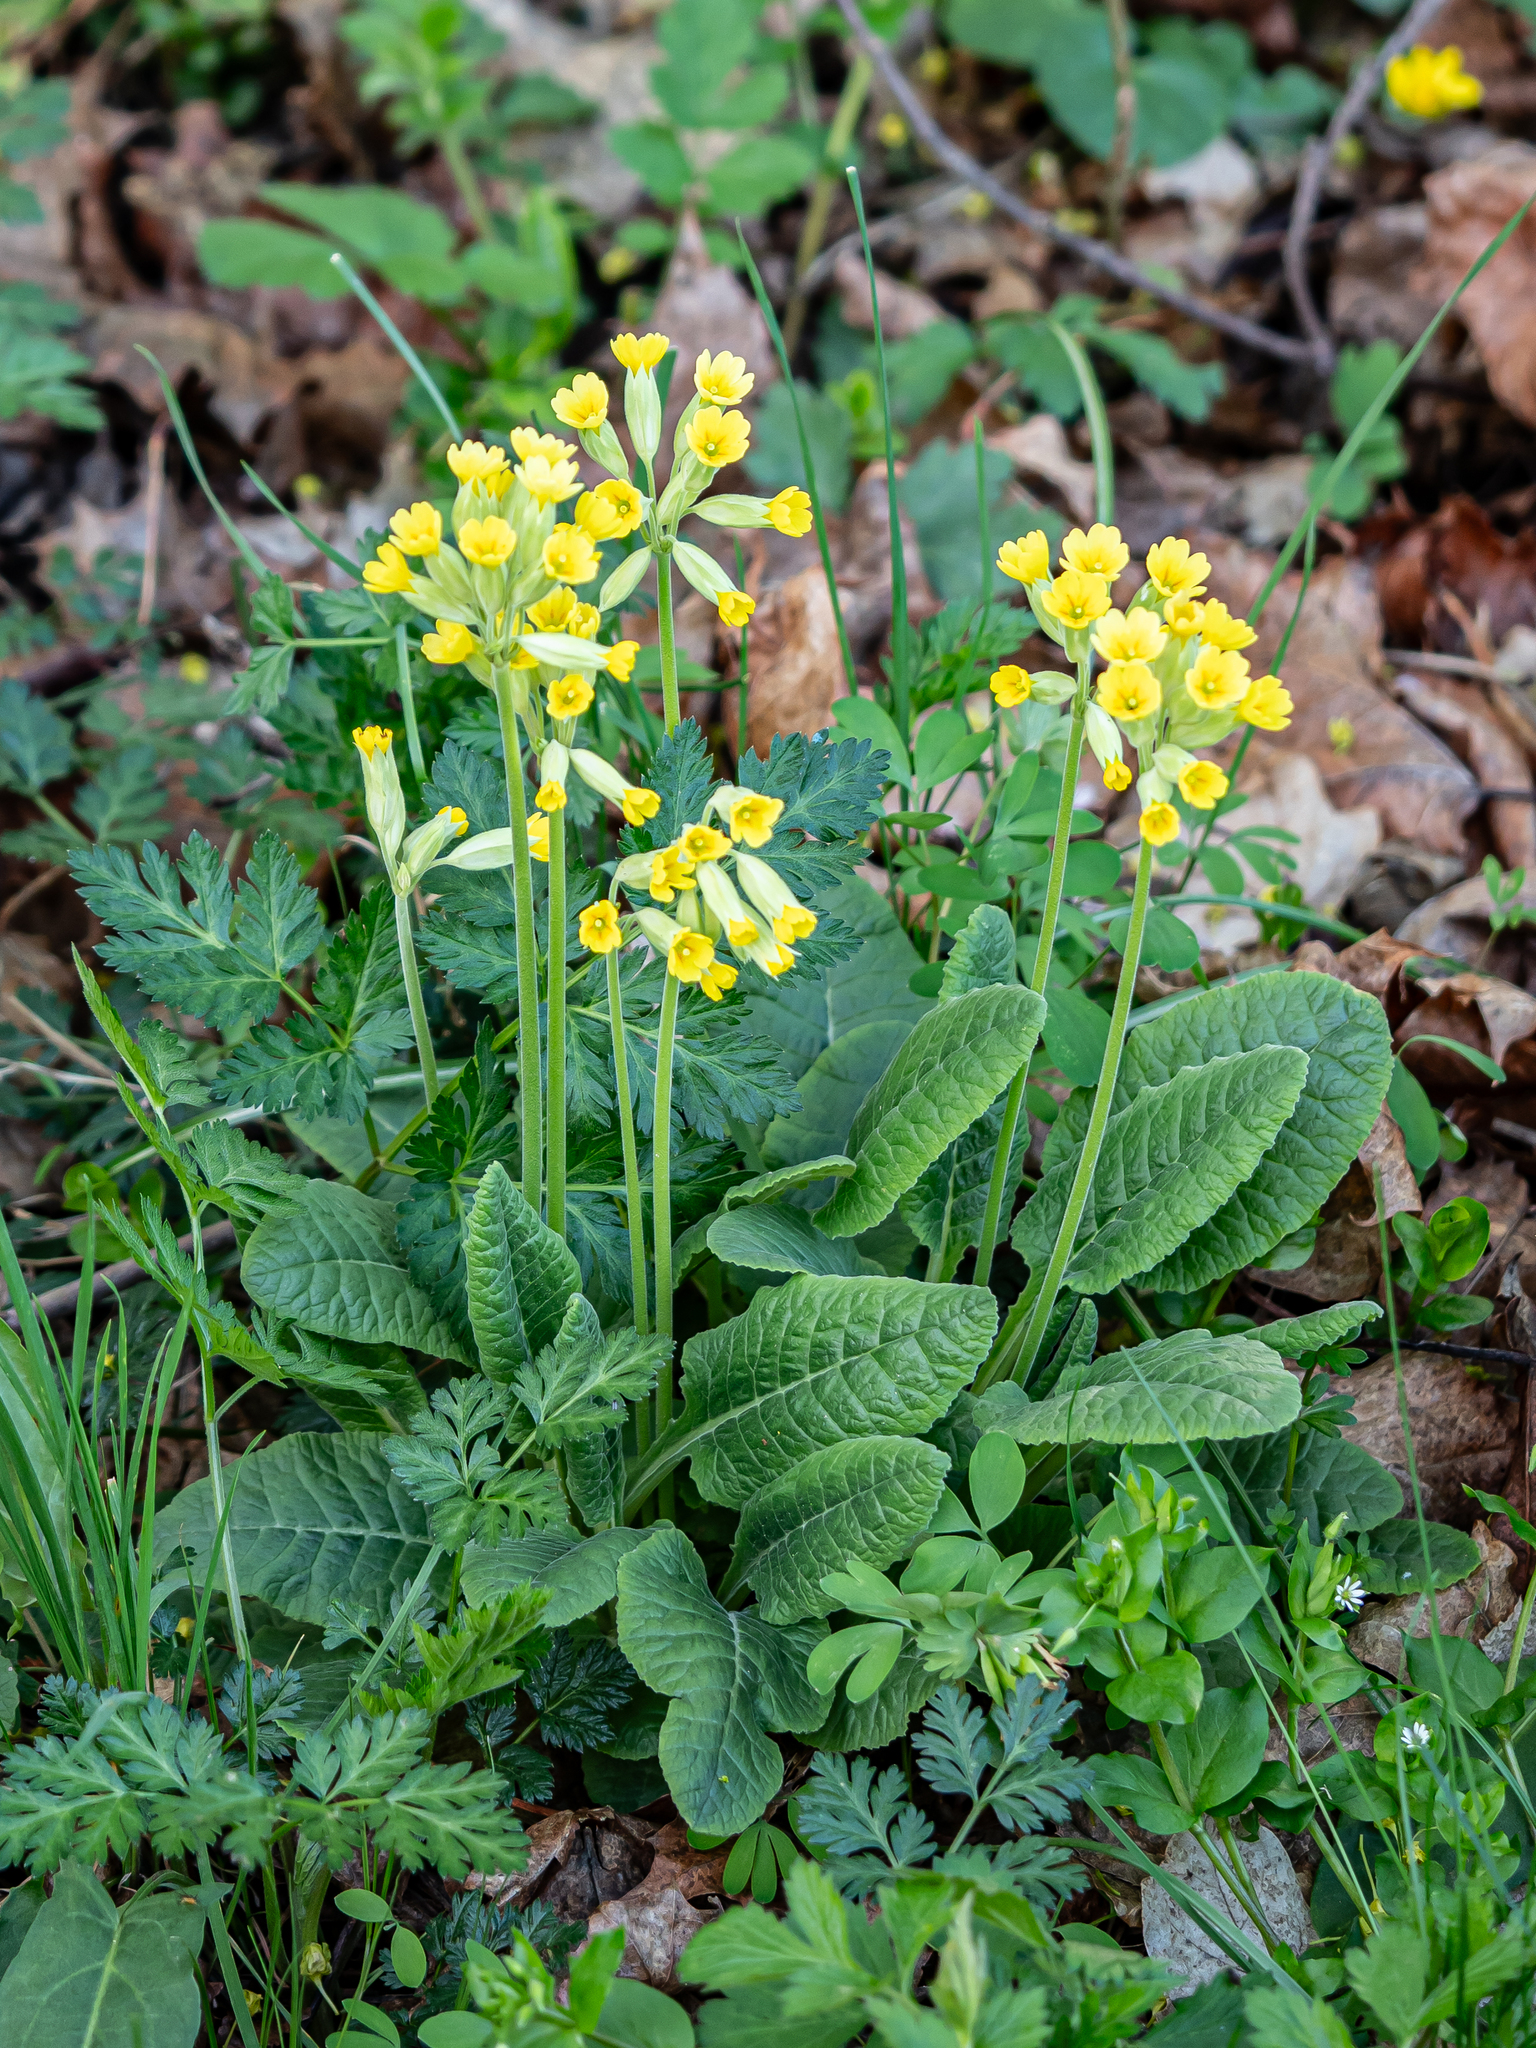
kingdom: Plantae
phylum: Tracheophyta
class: Magnoliopsida
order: Ericales
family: Primulaceae
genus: Primula
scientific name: Primula veris
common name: Cowslip
